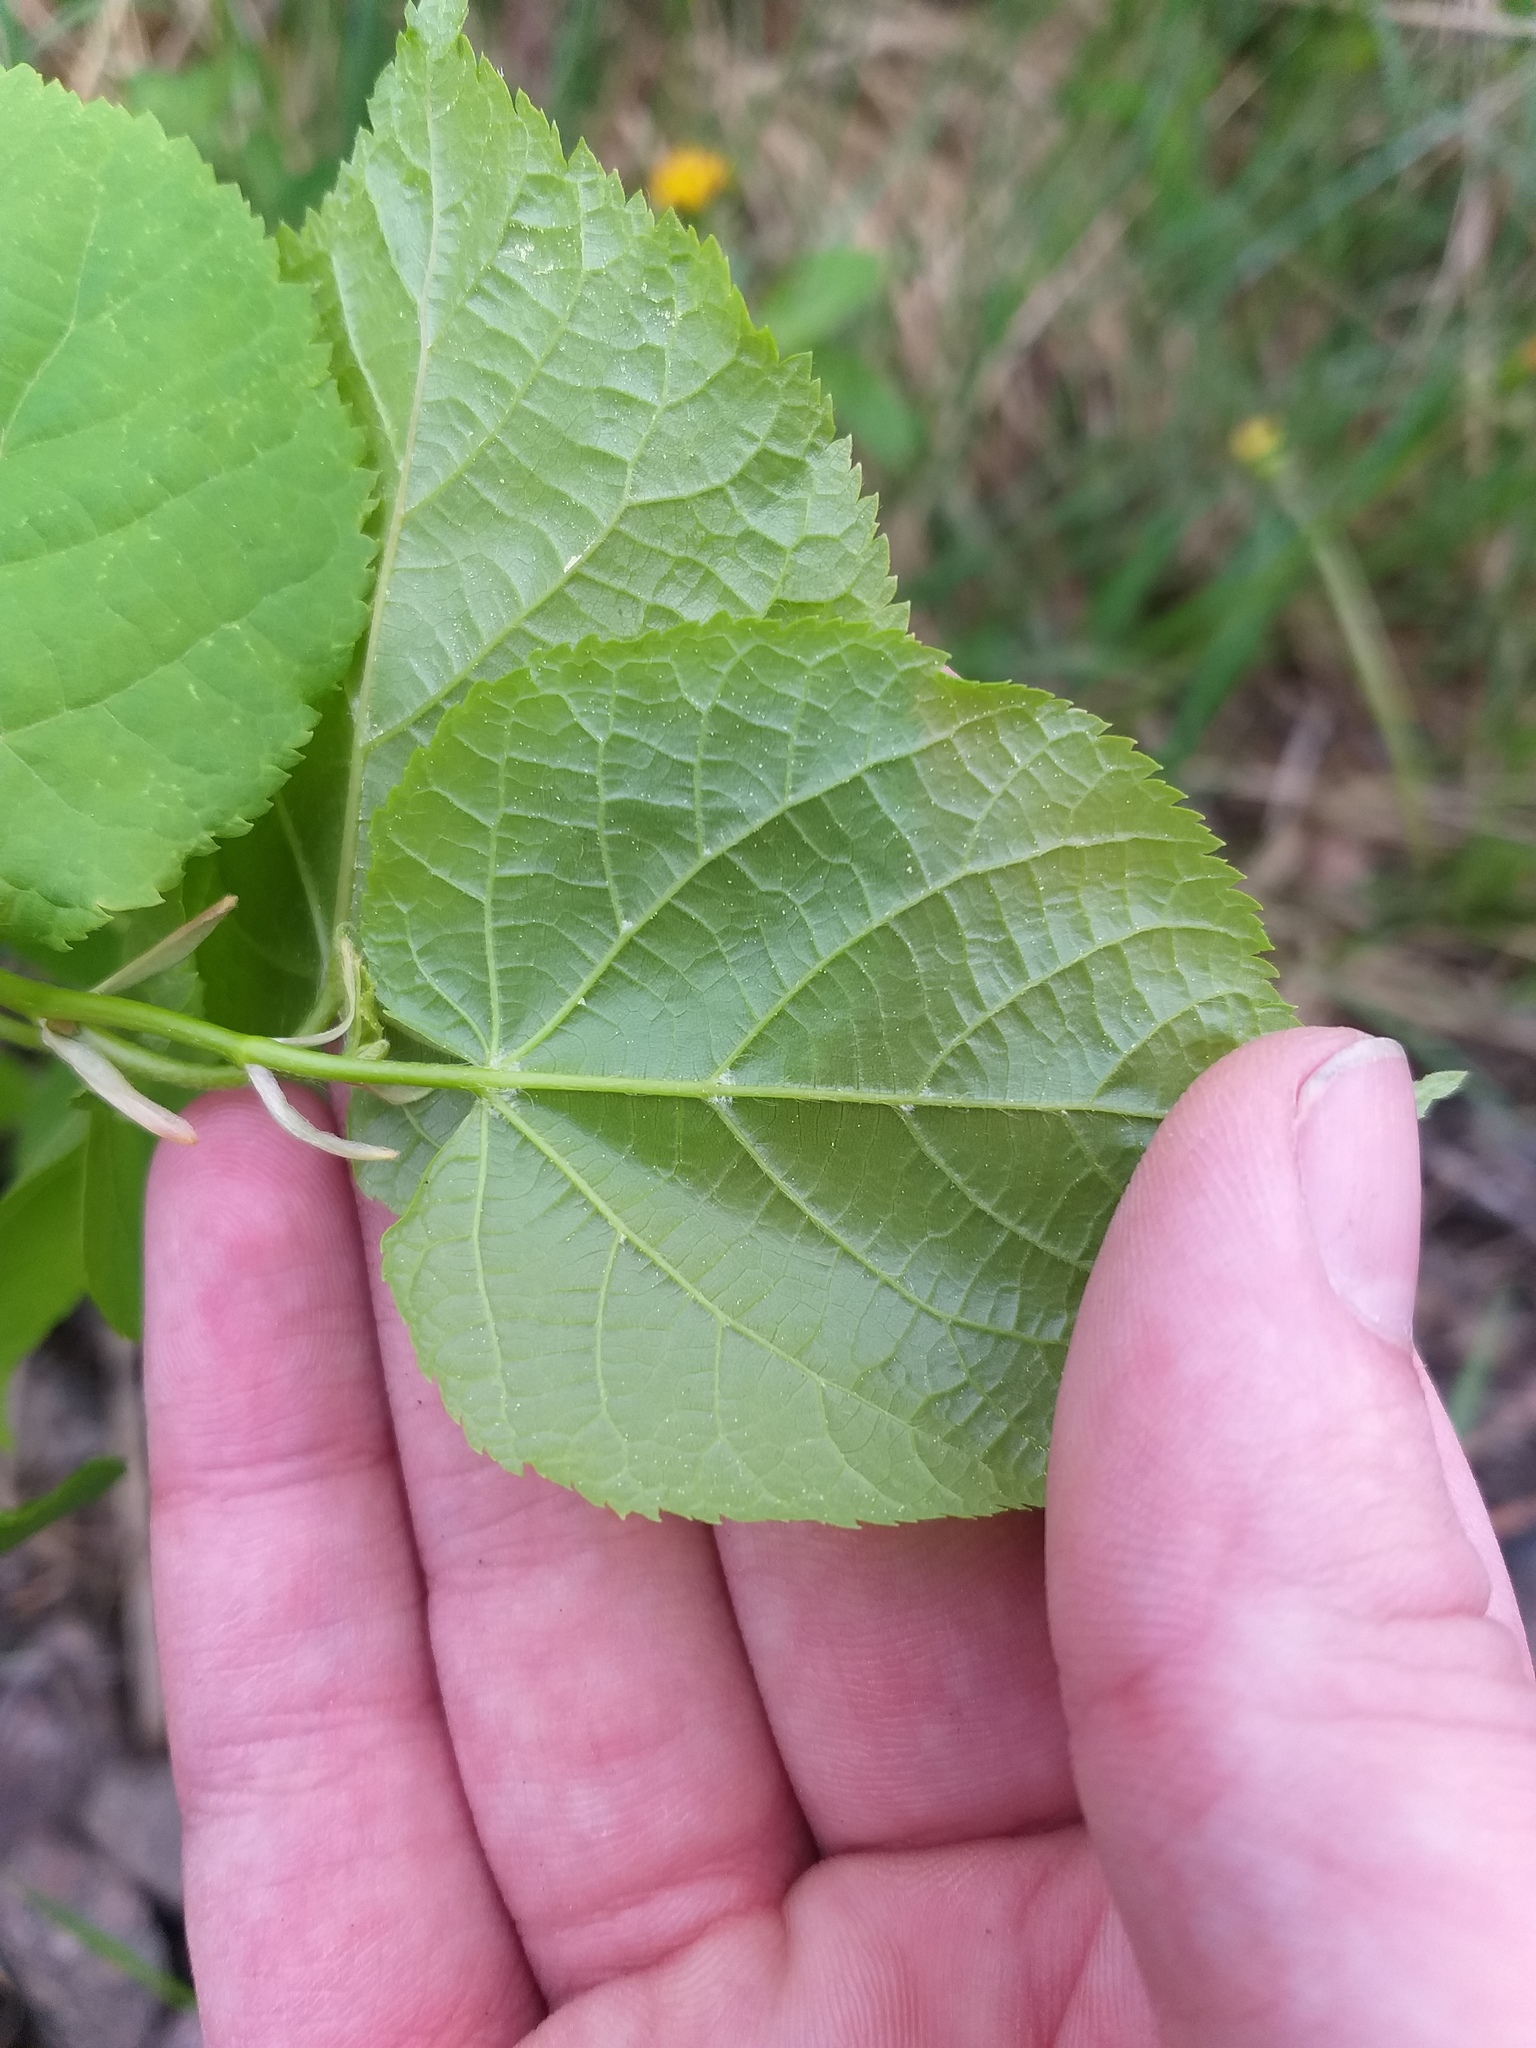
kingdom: Plantae
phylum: Tracheophyta
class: Magnoliopsida
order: Malvales
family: Malvaceae
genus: Tilia
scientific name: Tilia cordata
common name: Small-leaved lime
